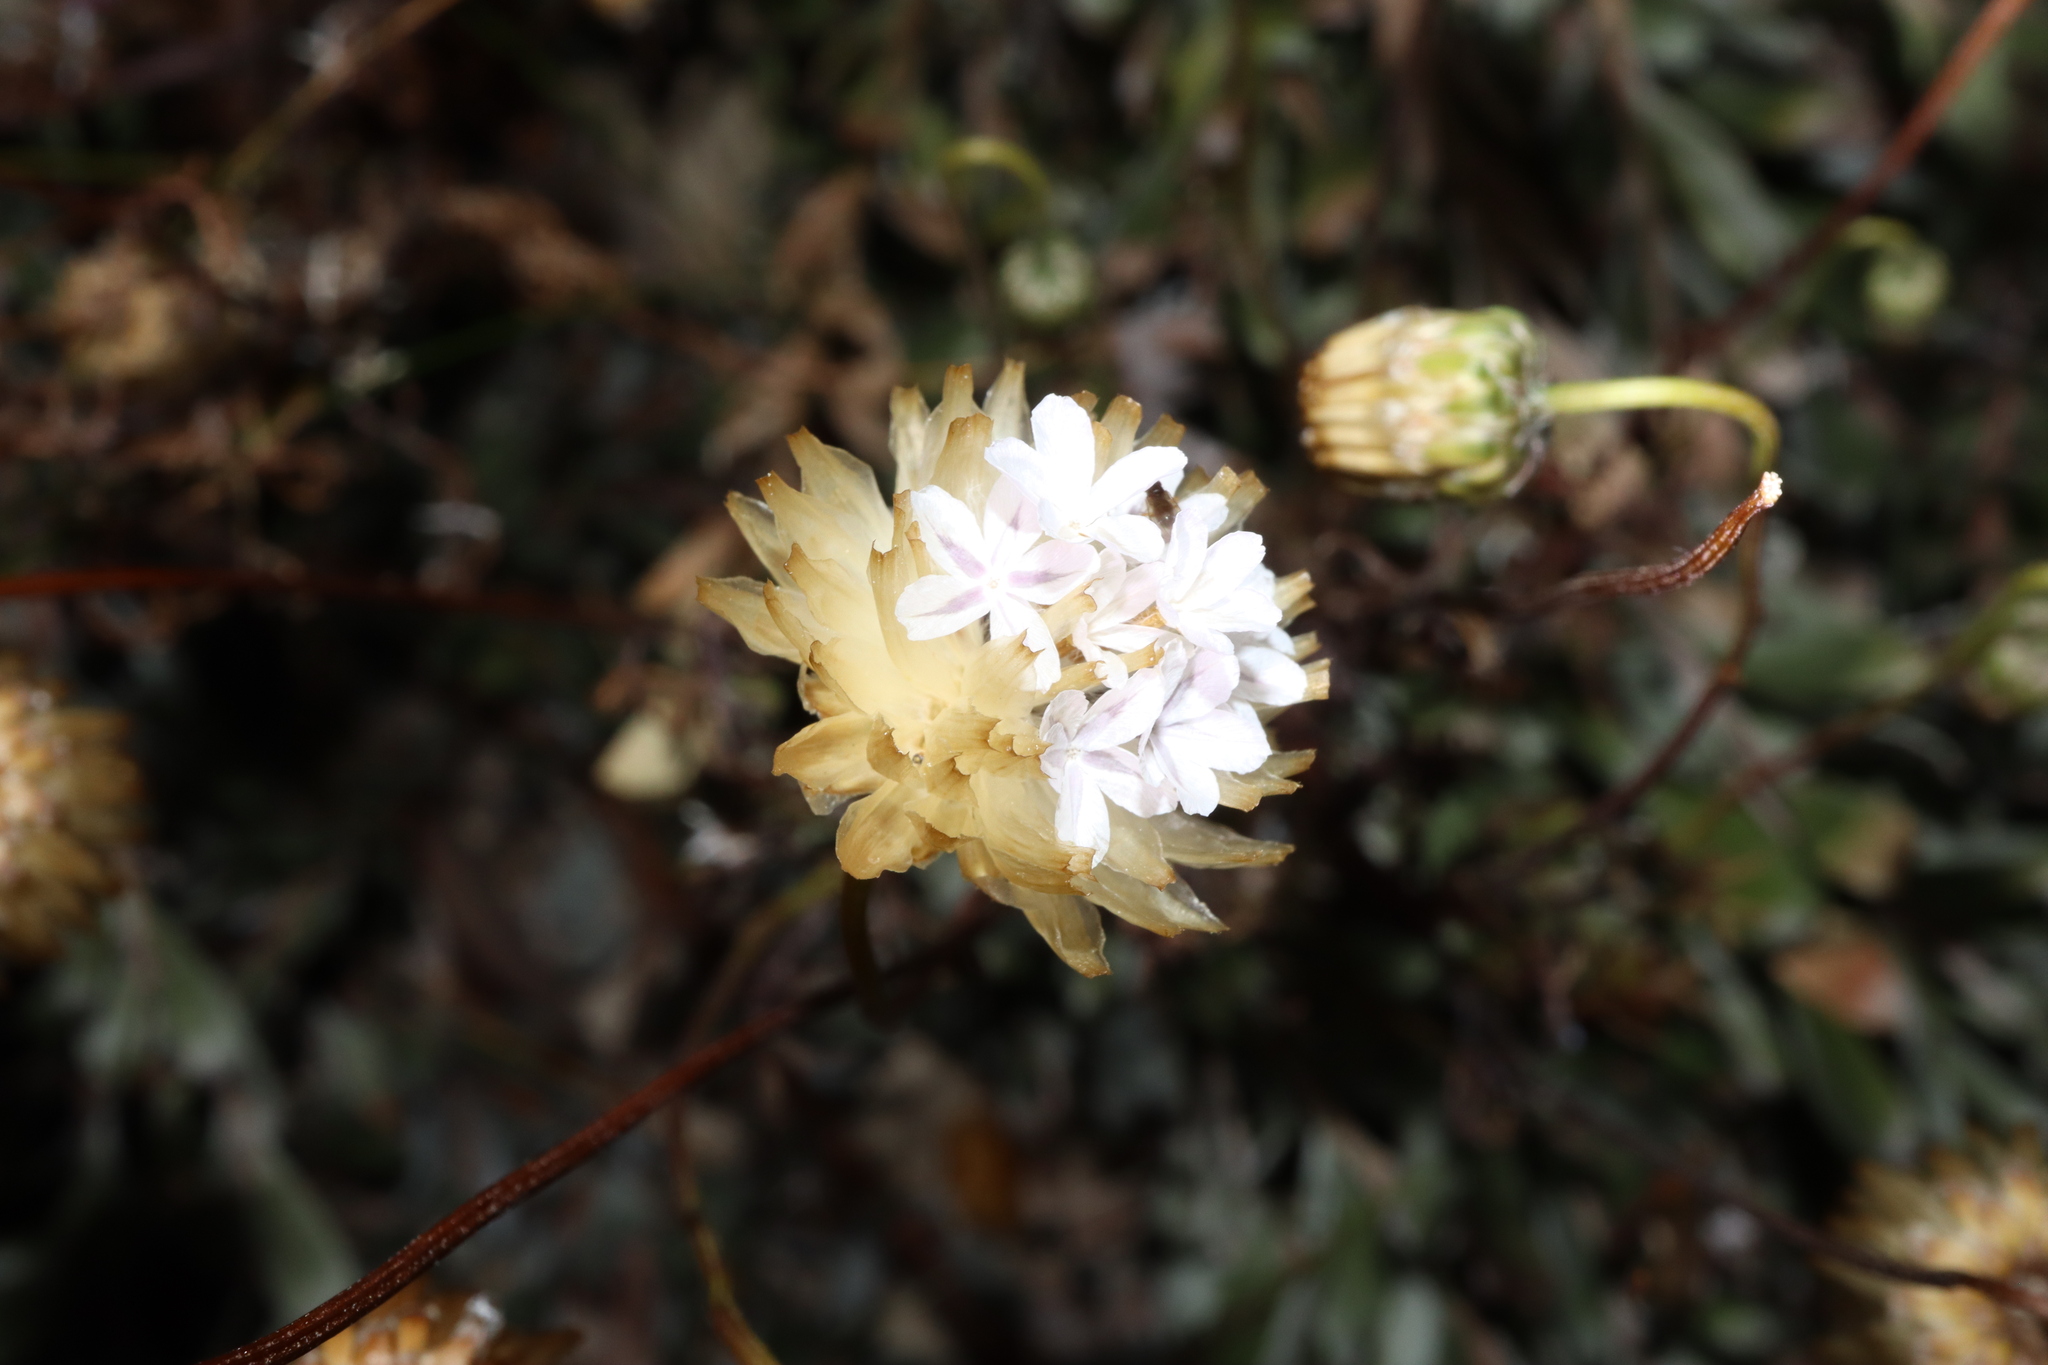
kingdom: Plantae
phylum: Tracheophyta
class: Magnoliopsida
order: Asterales
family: Asteraceae
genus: Ursinia
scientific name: Ursinia anthemoides
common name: Ursinia
